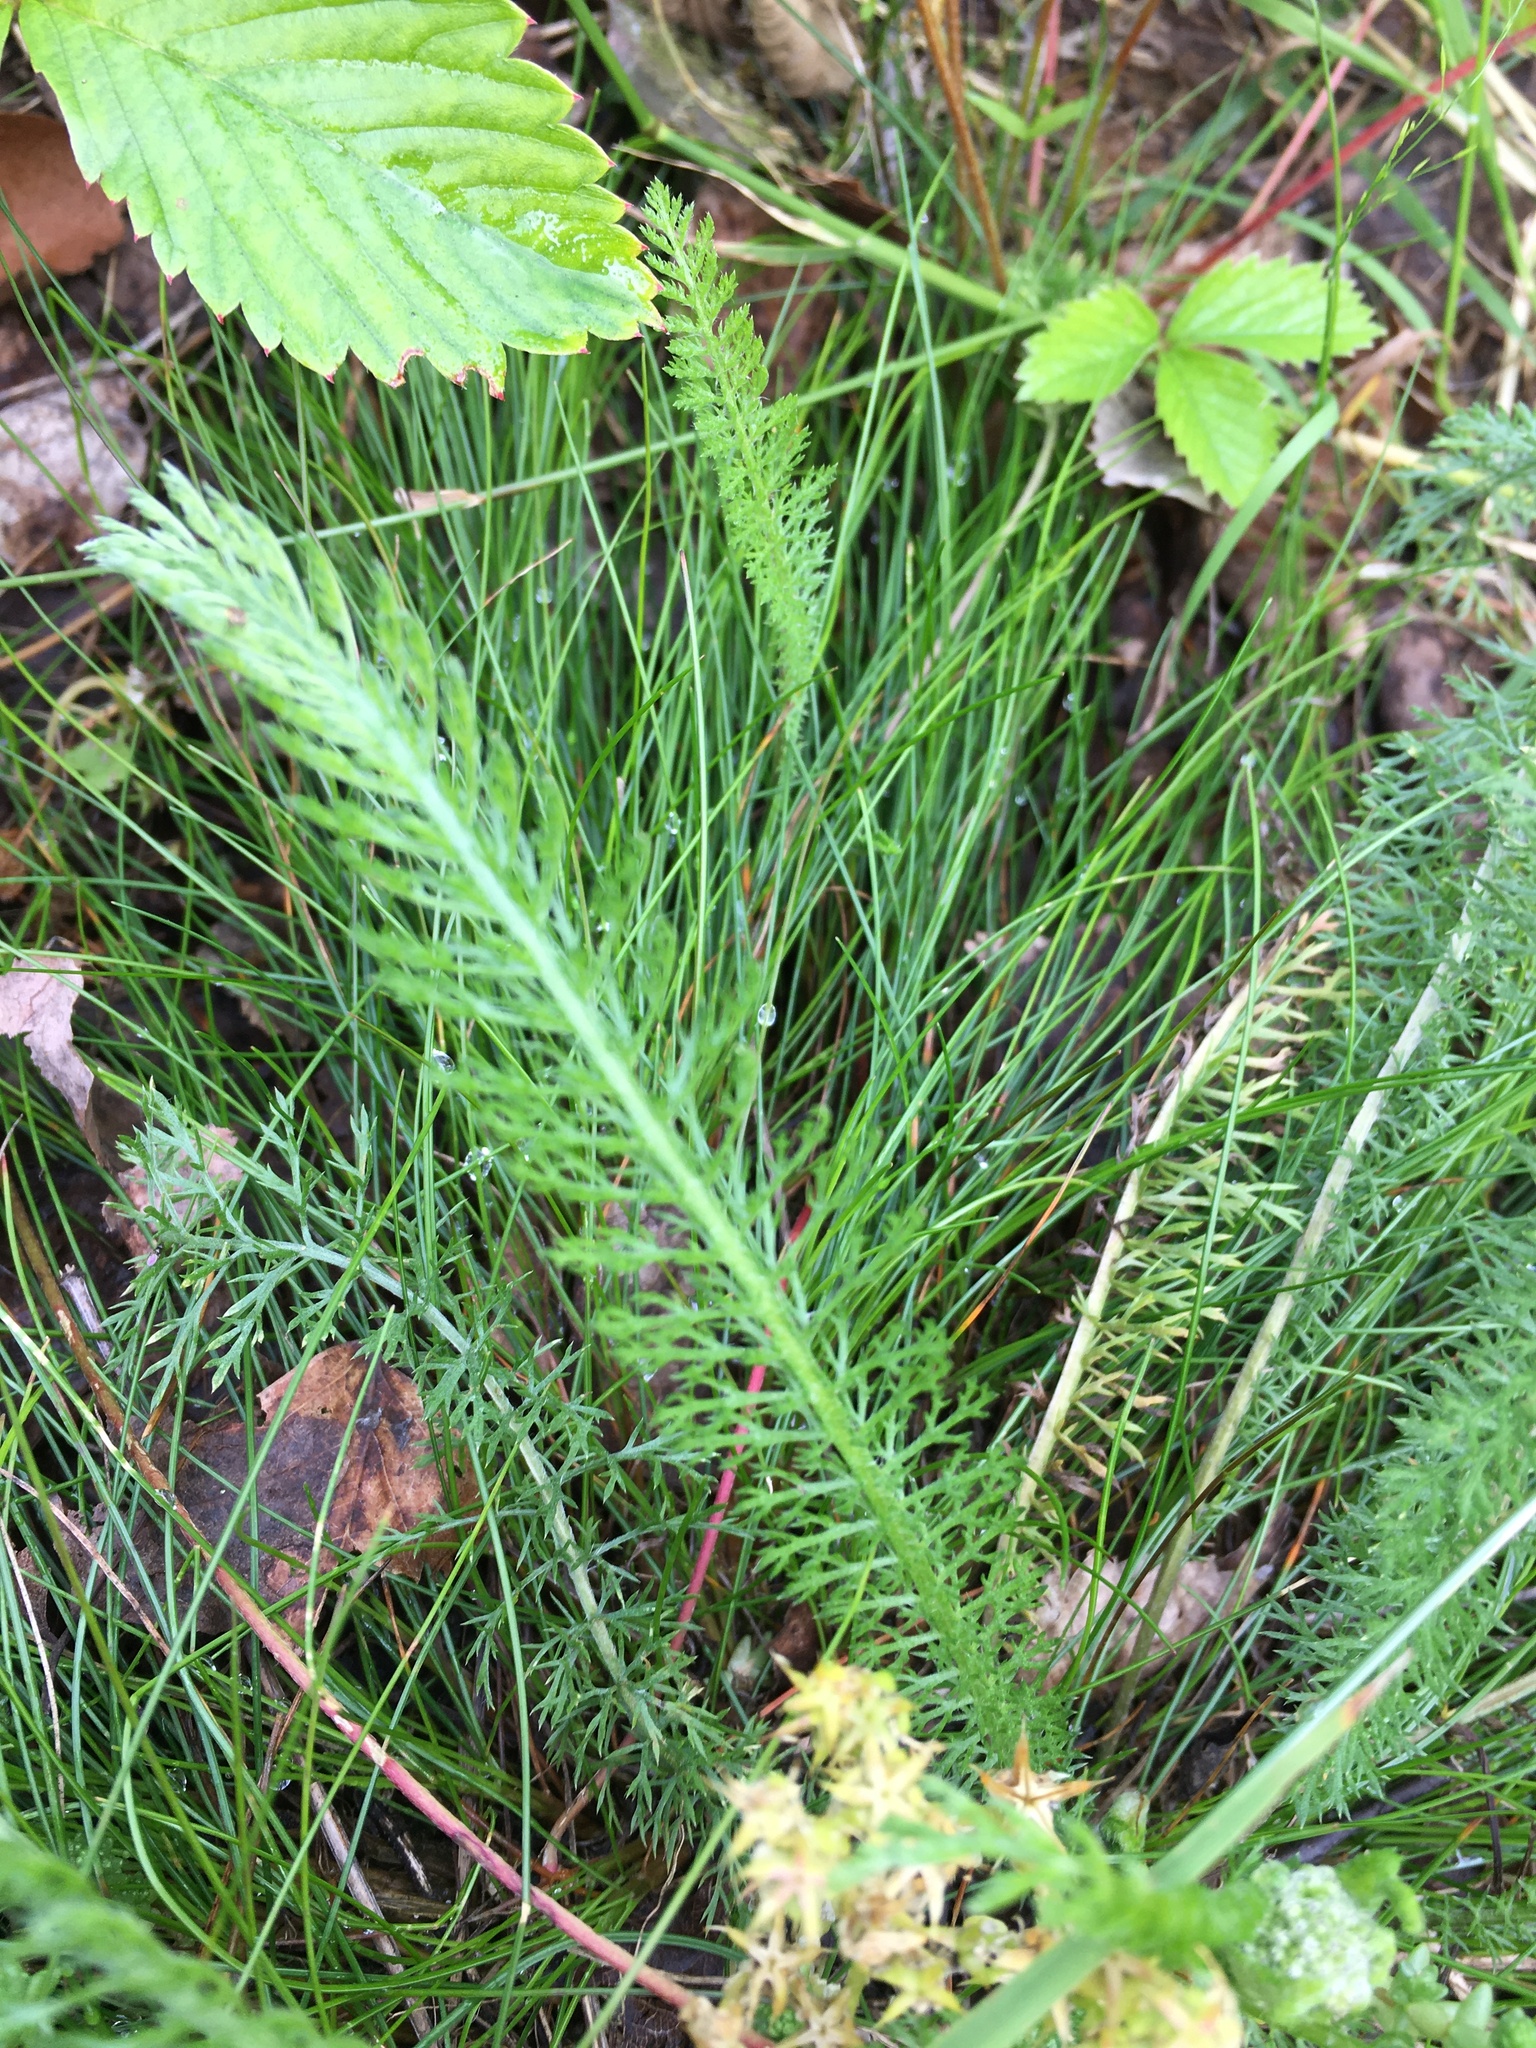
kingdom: Plantae
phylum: Tracheophyta
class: Magnoliopsida
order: Asterales
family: Asteraceae
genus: Achillea
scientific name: Achillea millefolium
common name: Yarrow
